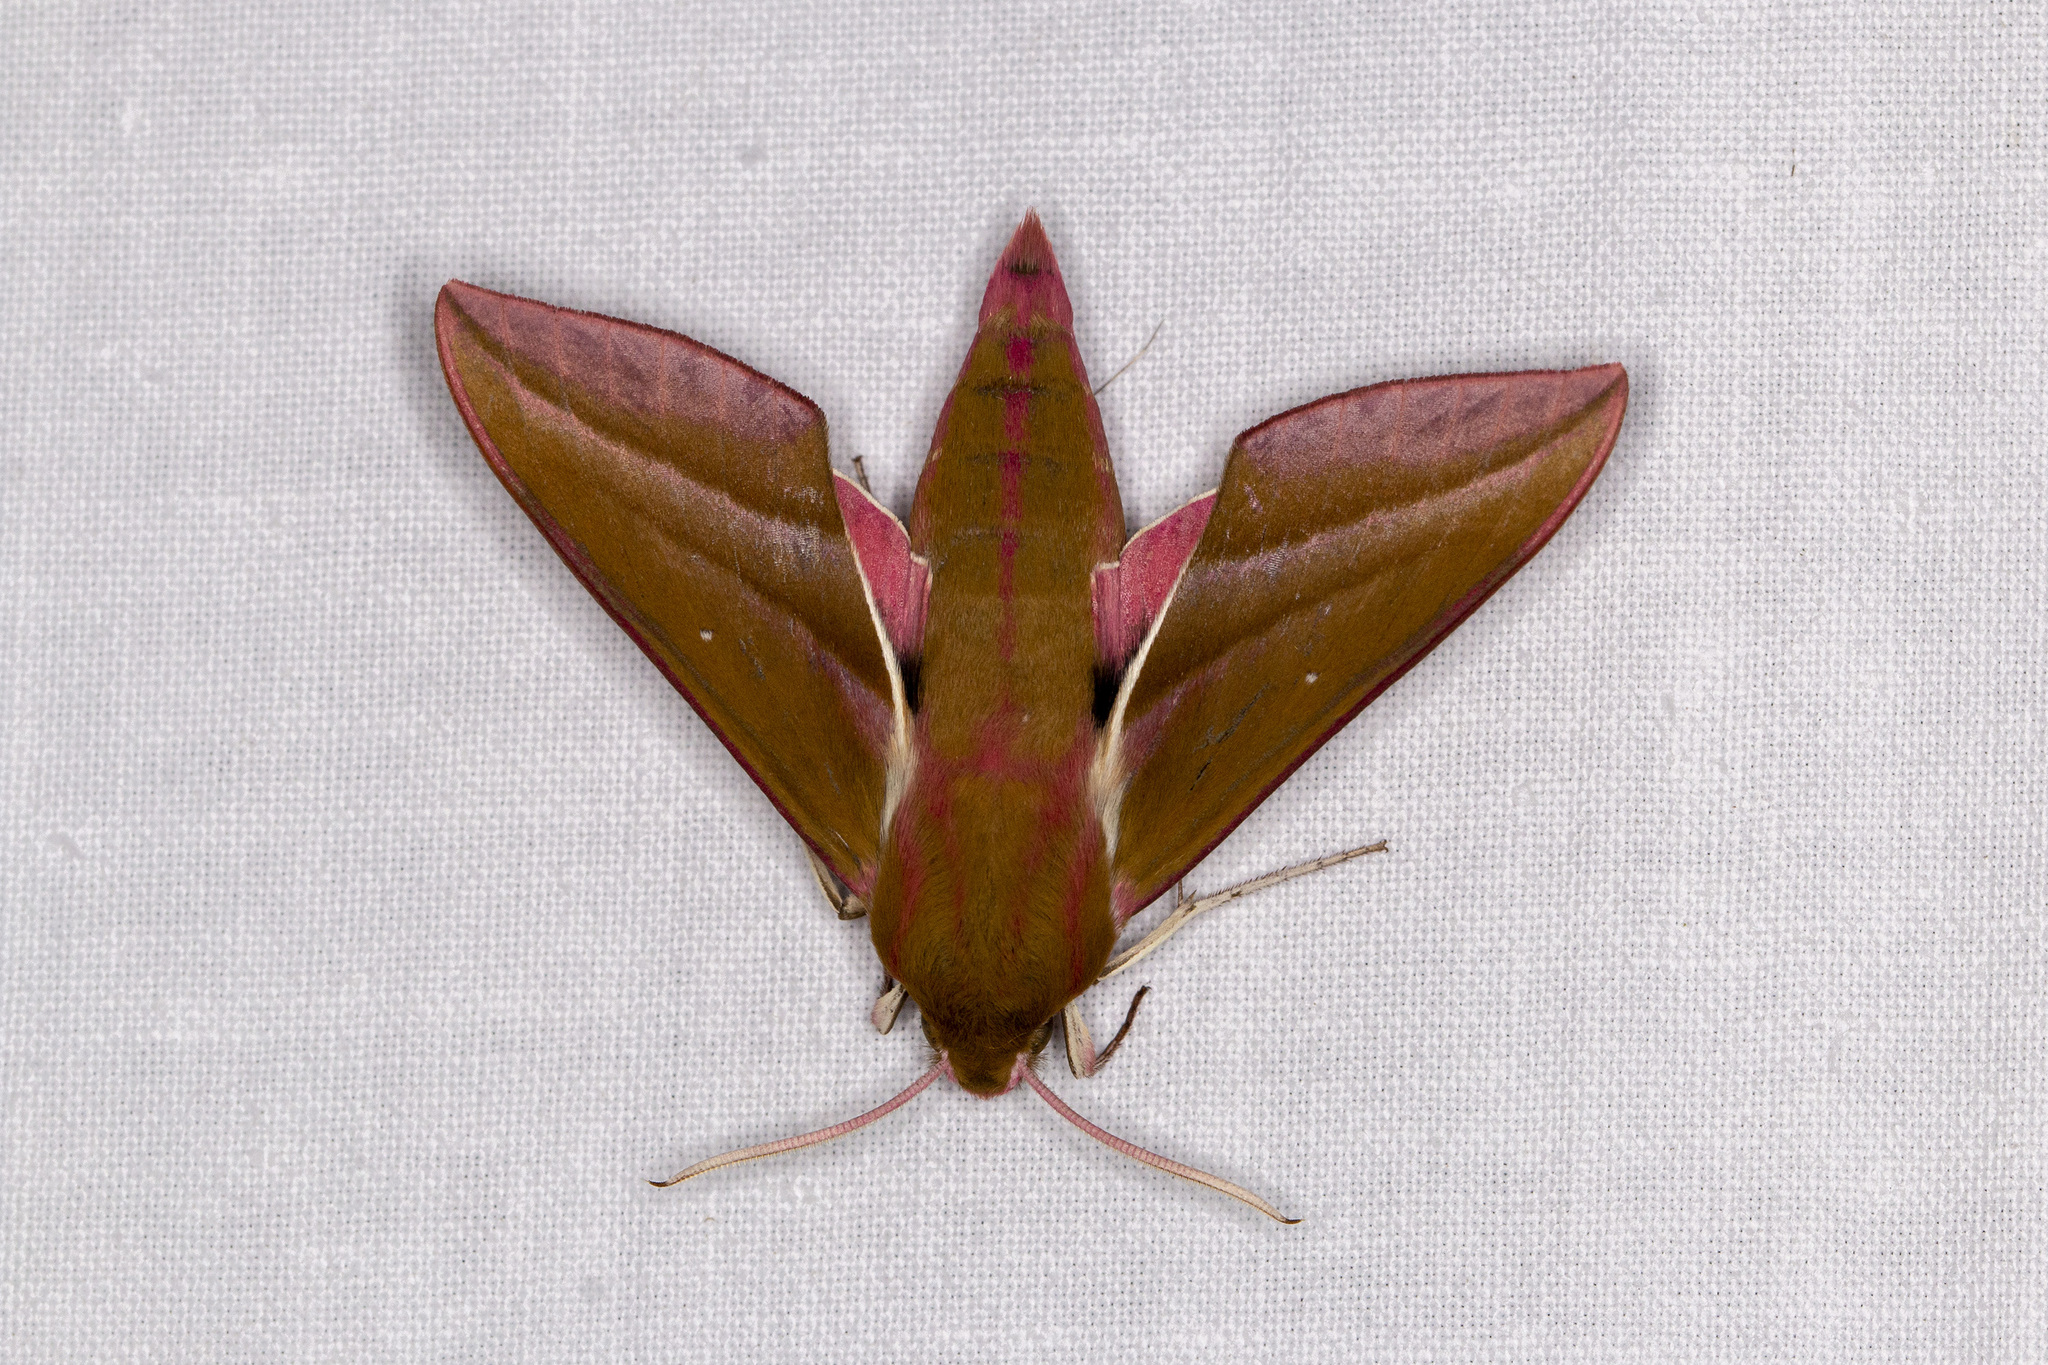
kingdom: Animalia
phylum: Arthropoda
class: Insecta
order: Lepidoptera
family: Sphingidae
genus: Deilephila
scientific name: Deilephila elpenor
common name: Elephant hawk-moth
